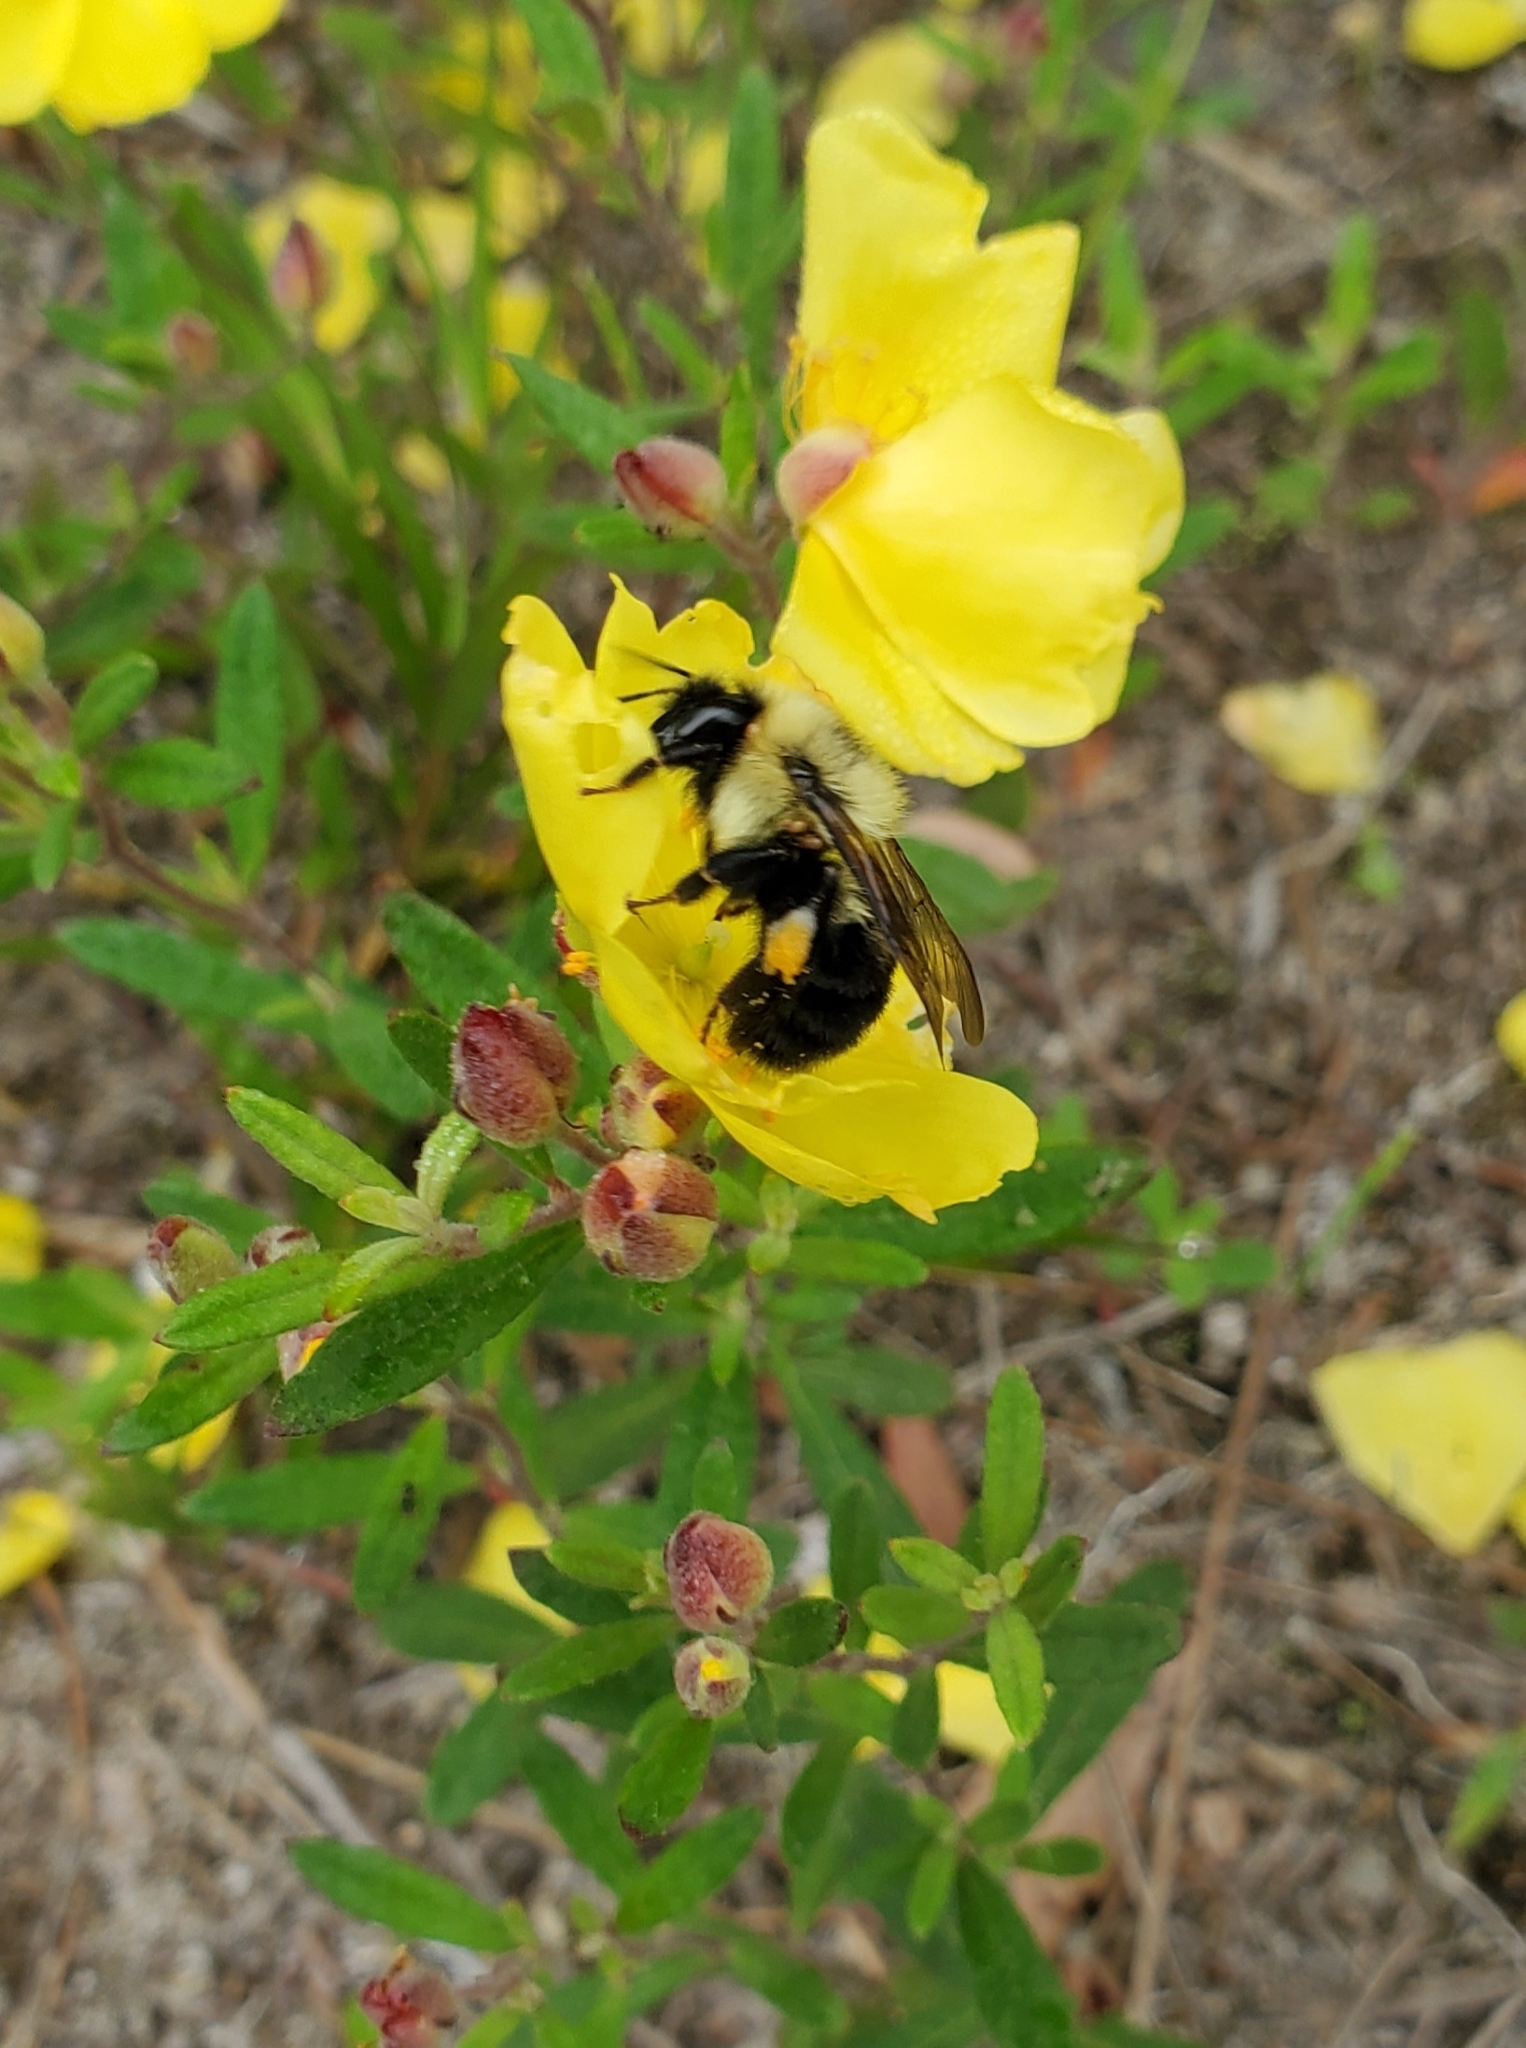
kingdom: Animalia
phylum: Arthropoda
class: Insecta
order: Hymenoptera
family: Apidae
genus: Bombus
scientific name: Bombus bimaculatus
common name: Two-spotted bumble bee
